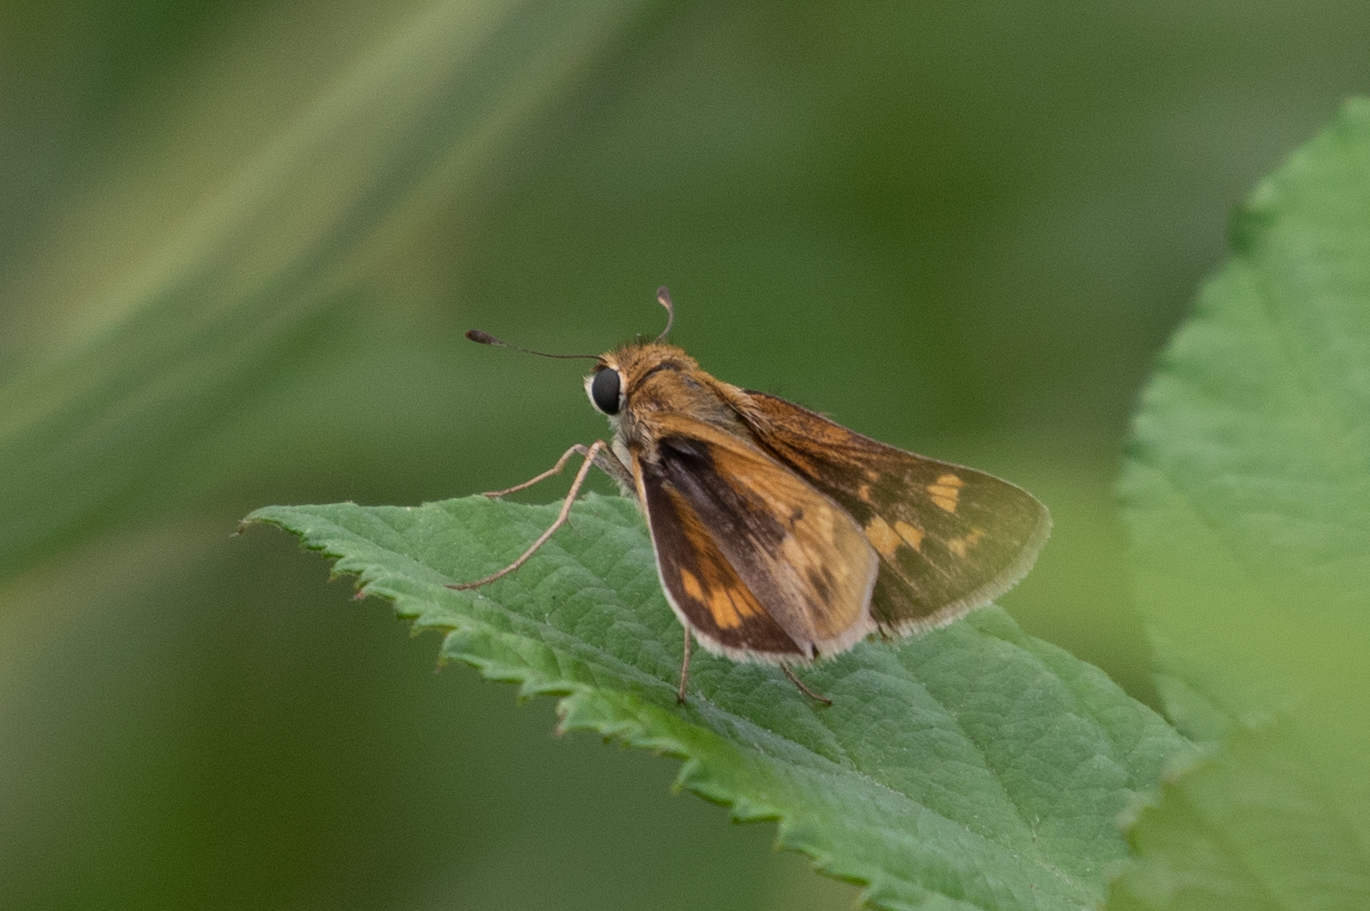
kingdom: Animalia
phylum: Arthropoda
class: Insecta
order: Lepidoptera
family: Hesperiidae
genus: Hylephila
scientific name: Hylephila phyleus
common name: Fiery skipper
